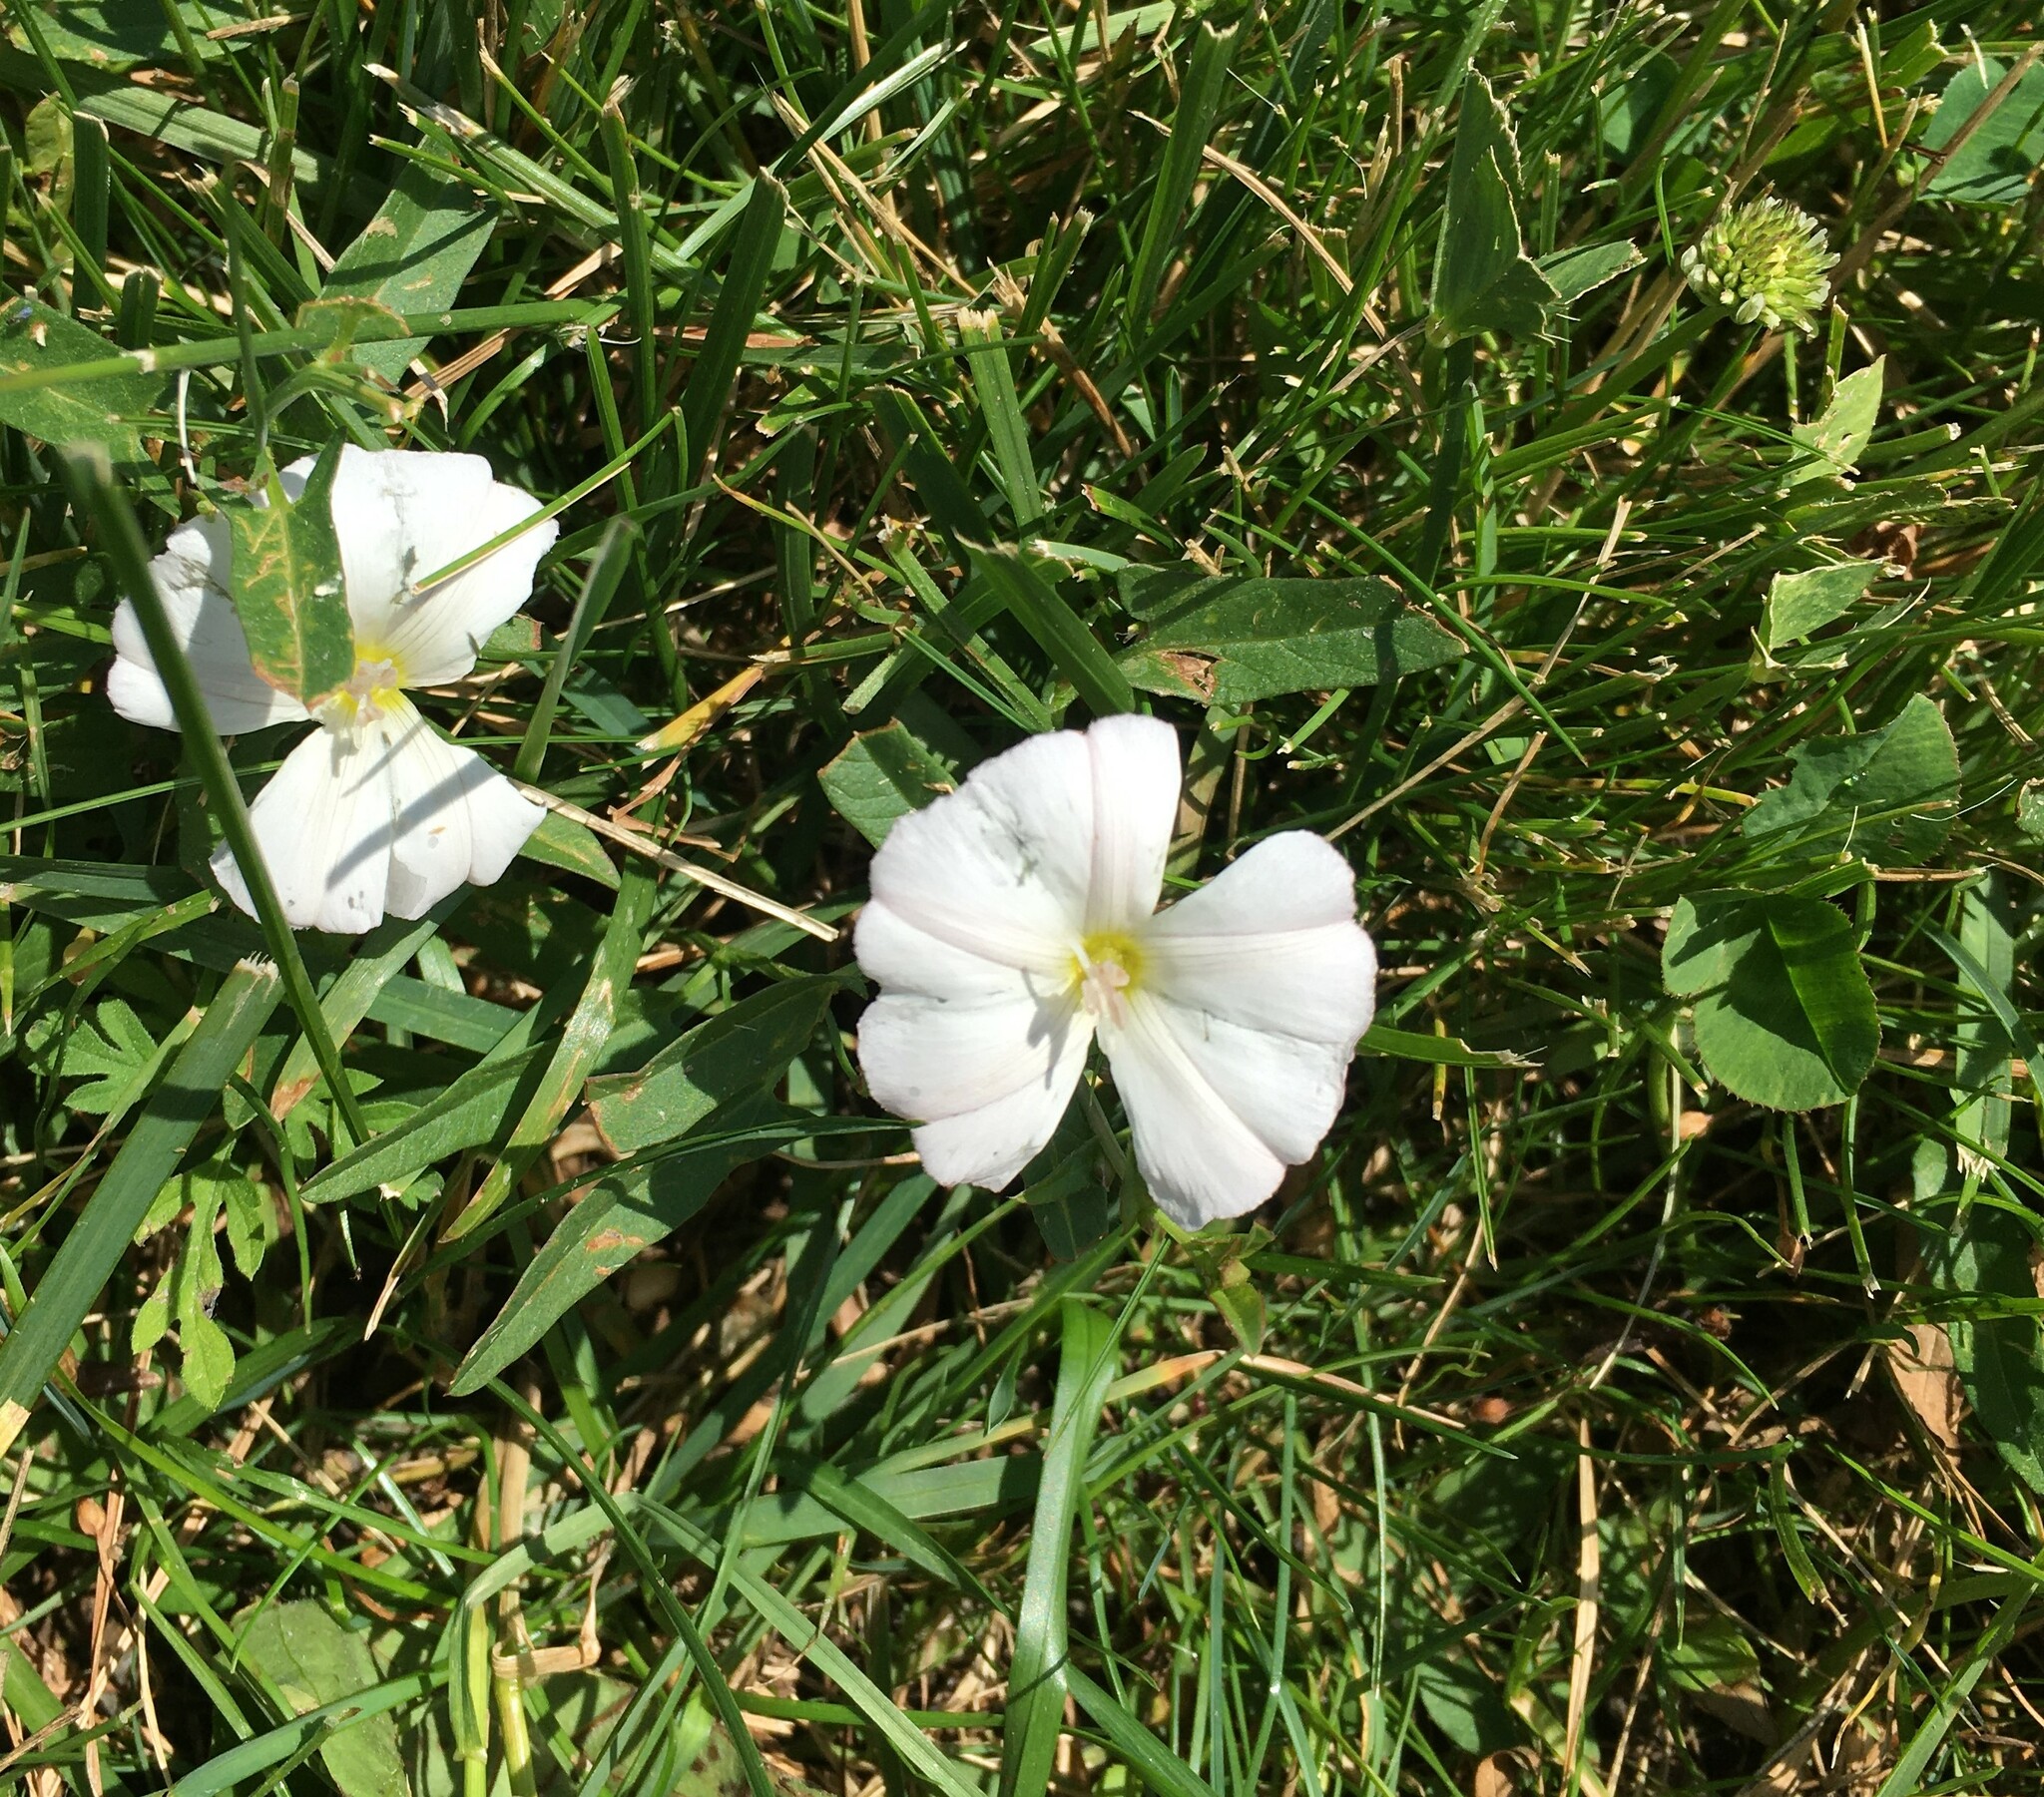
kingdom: Plantae
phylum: Tracheophyta
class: Magnoliopsida
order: Solanales
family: Convolvulaceae
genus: Convolvulus
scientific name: Convolvulus arvensis
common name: Field bindweed
